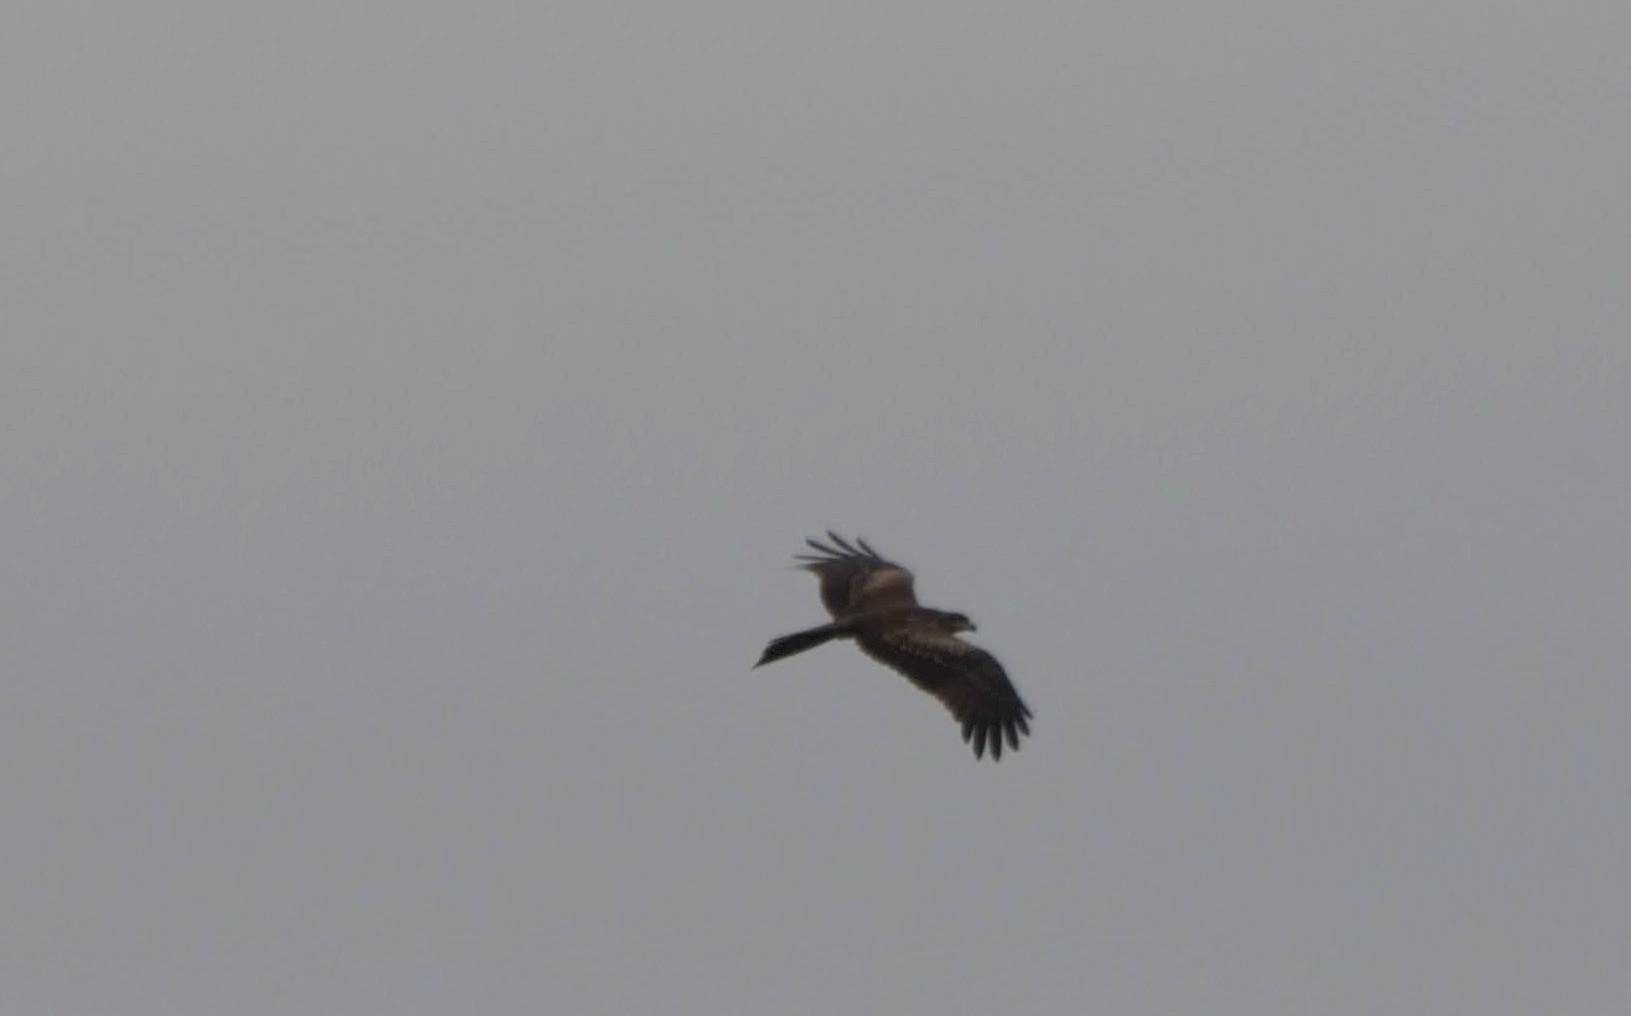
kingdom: Animalia
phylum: Chordata
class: Aves
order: Accipitriformes
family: Accipitridae
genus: Milvus
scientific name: Milvus migrans
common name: Black kite
